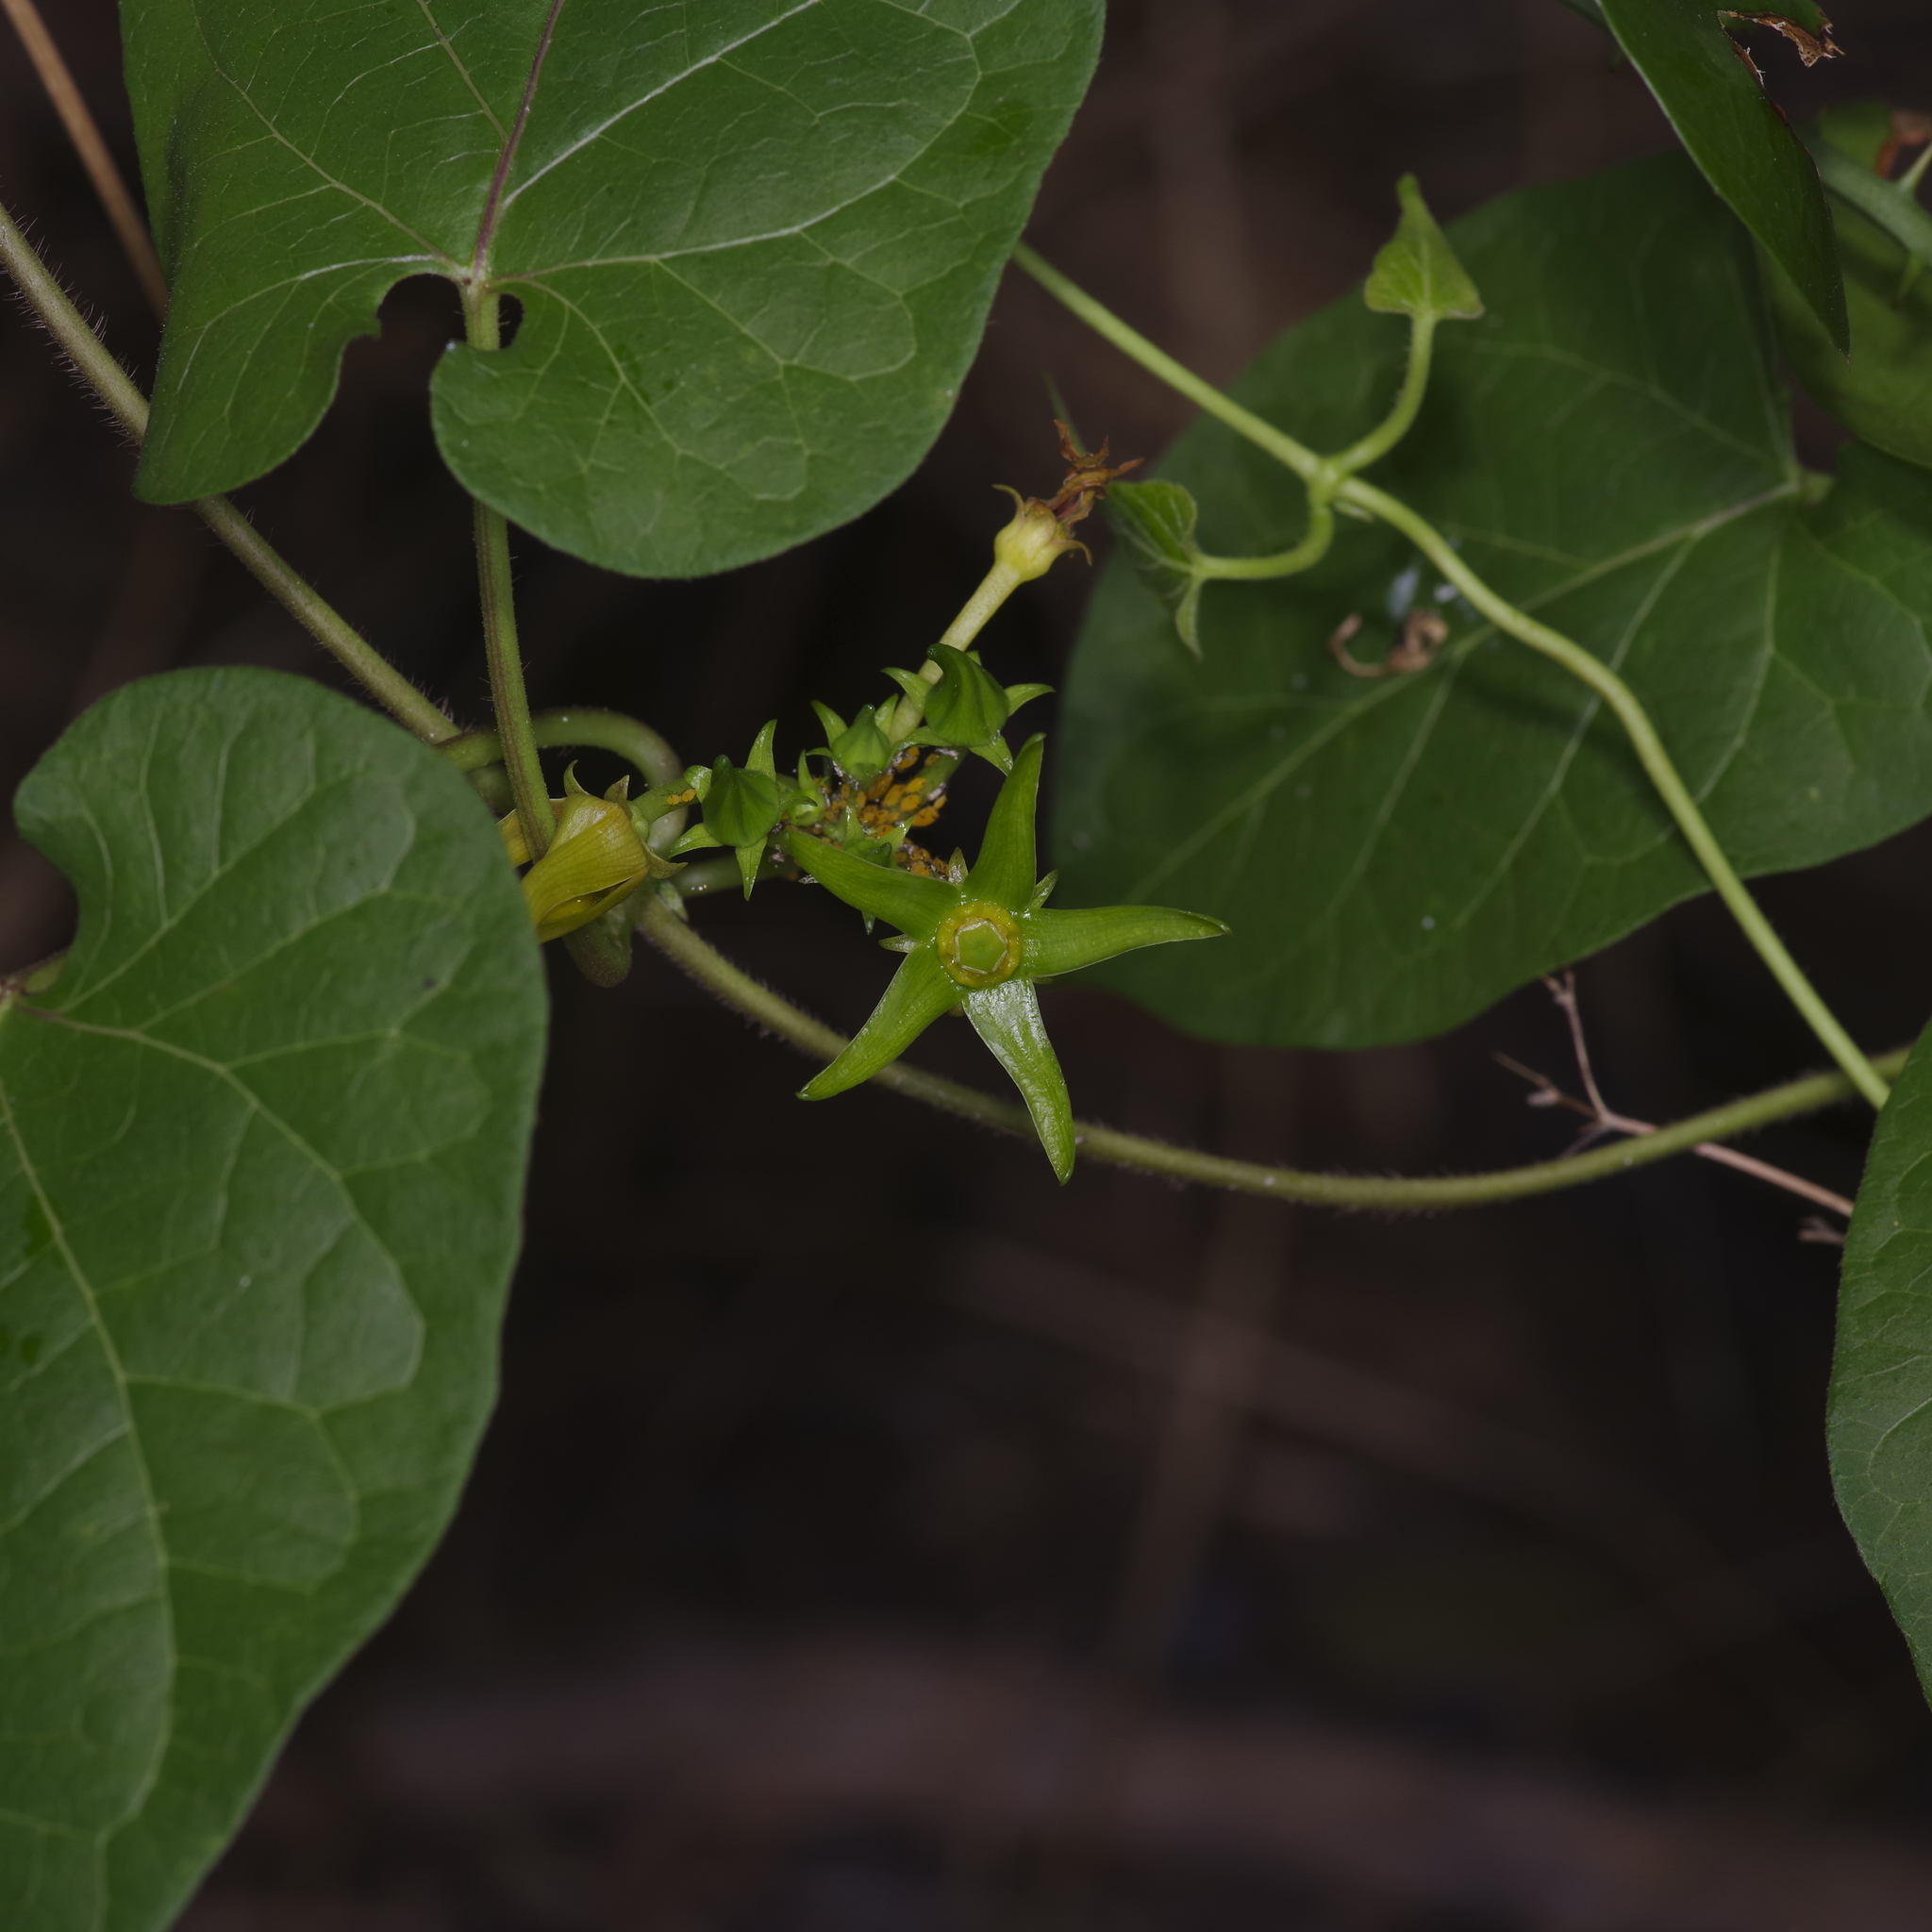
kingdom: Plantae
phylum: Tracheophyta
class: Magnoliopsida
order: Gentianales
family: Apocynaceae
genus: Gonolobus
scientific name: Gonolobus suberosus
